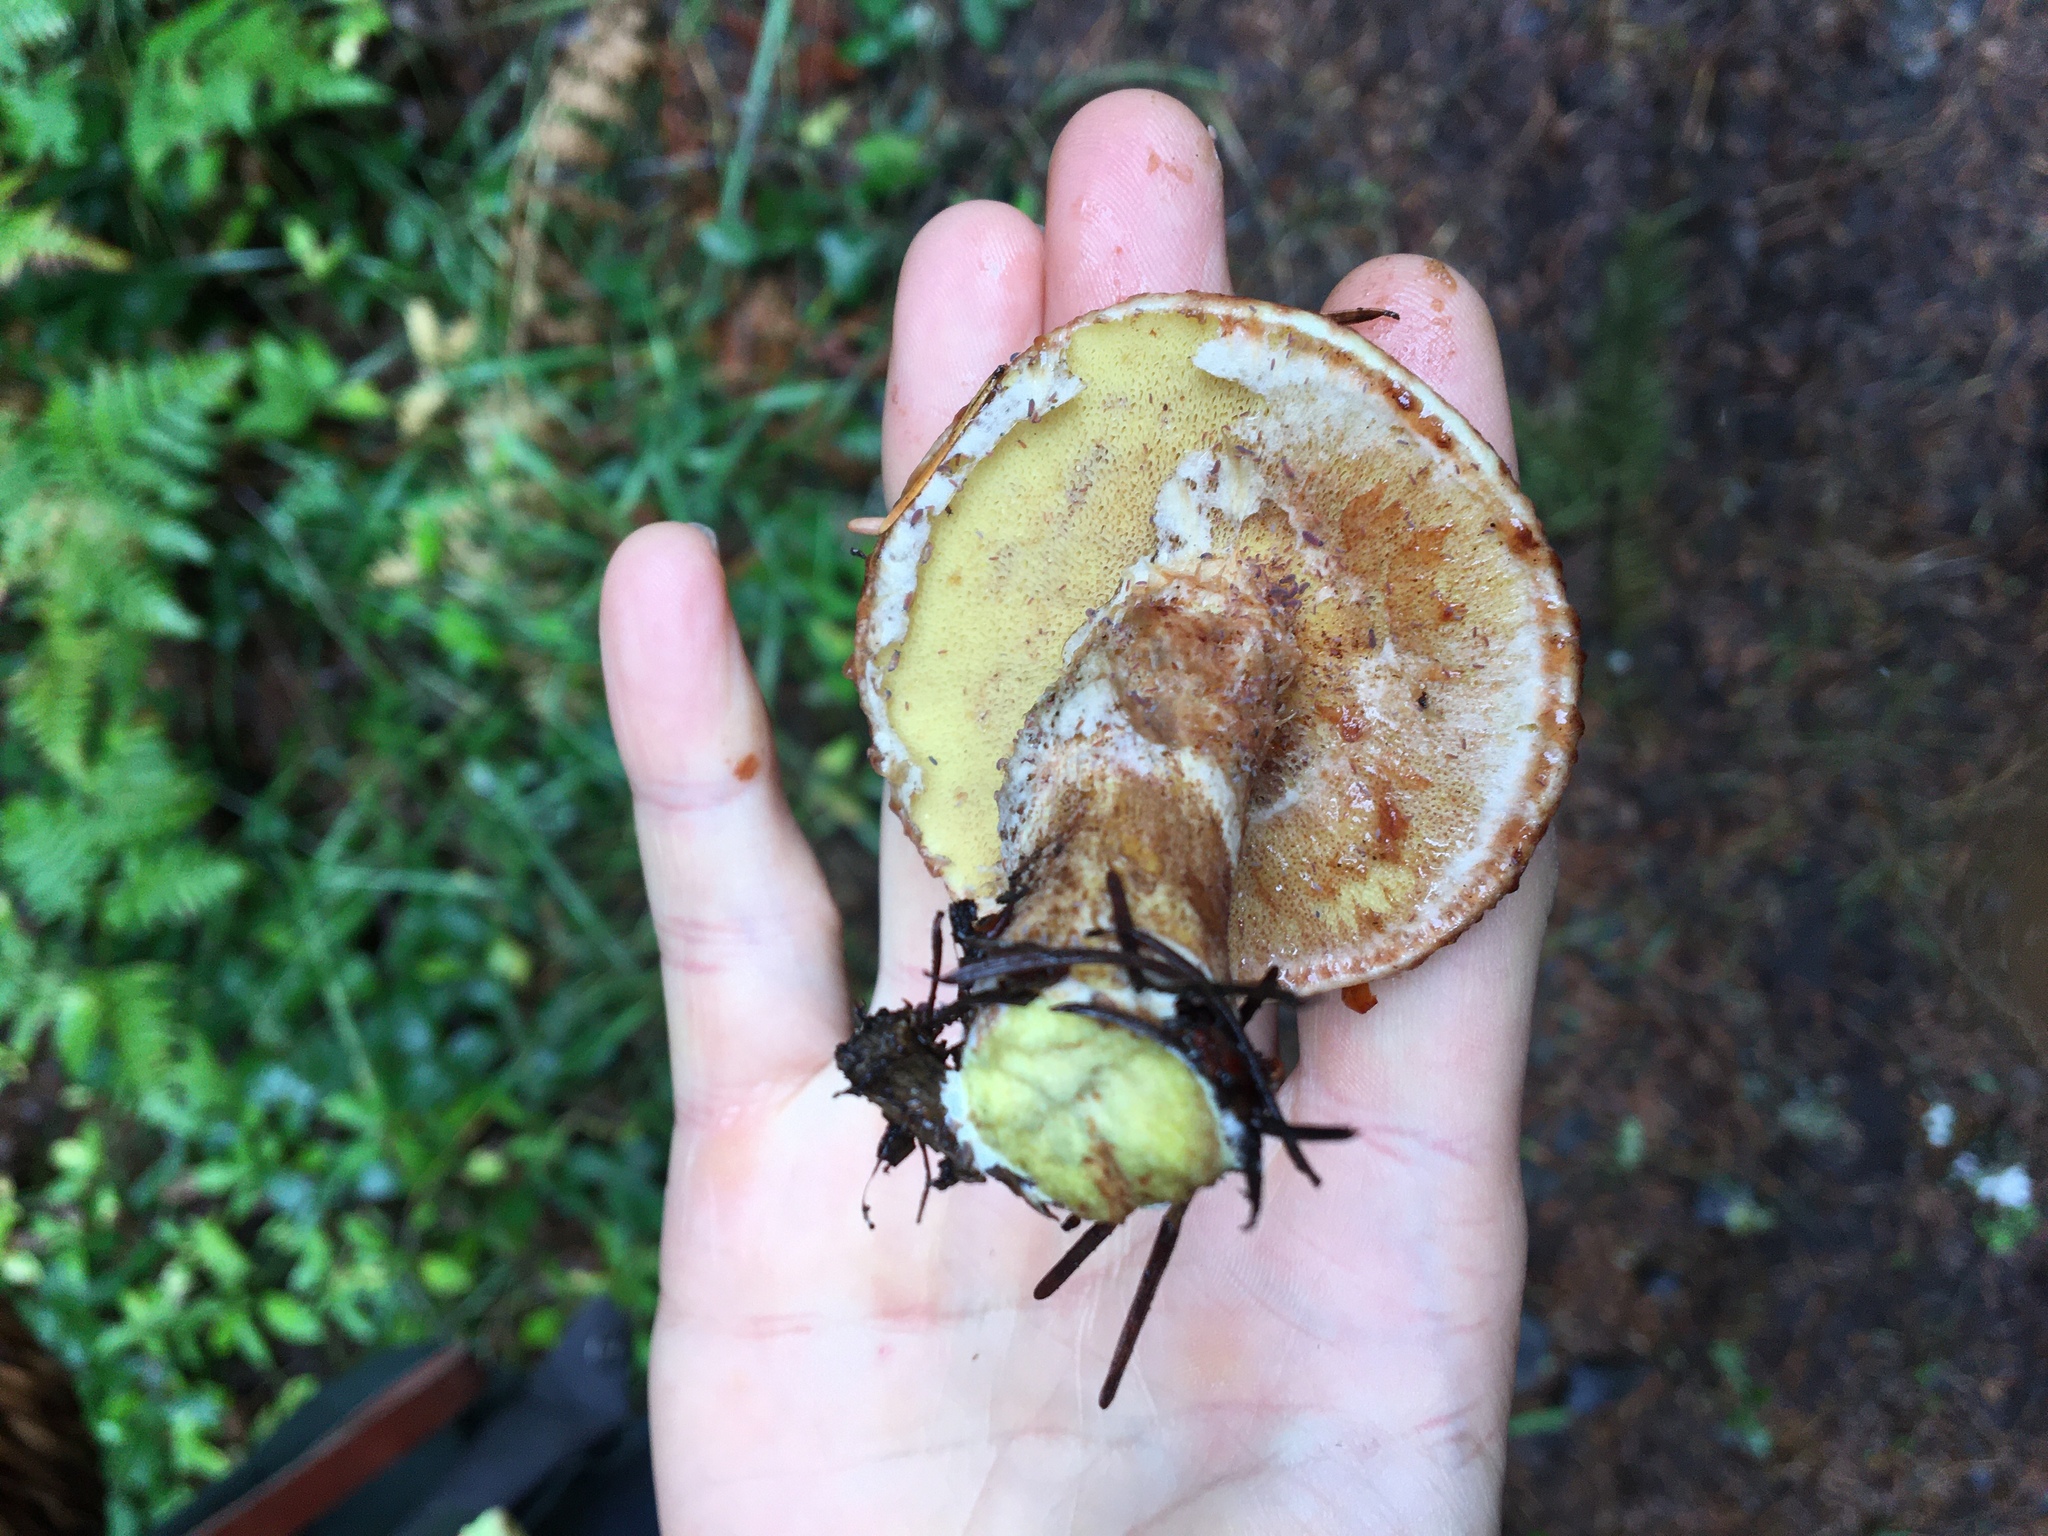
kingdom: Fungi
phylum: Basidiomycota
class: Agaricomycetes
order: Boletales
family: Suillaceae
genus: Suillus
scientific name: Suillus lakei
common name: Western painted suillus
